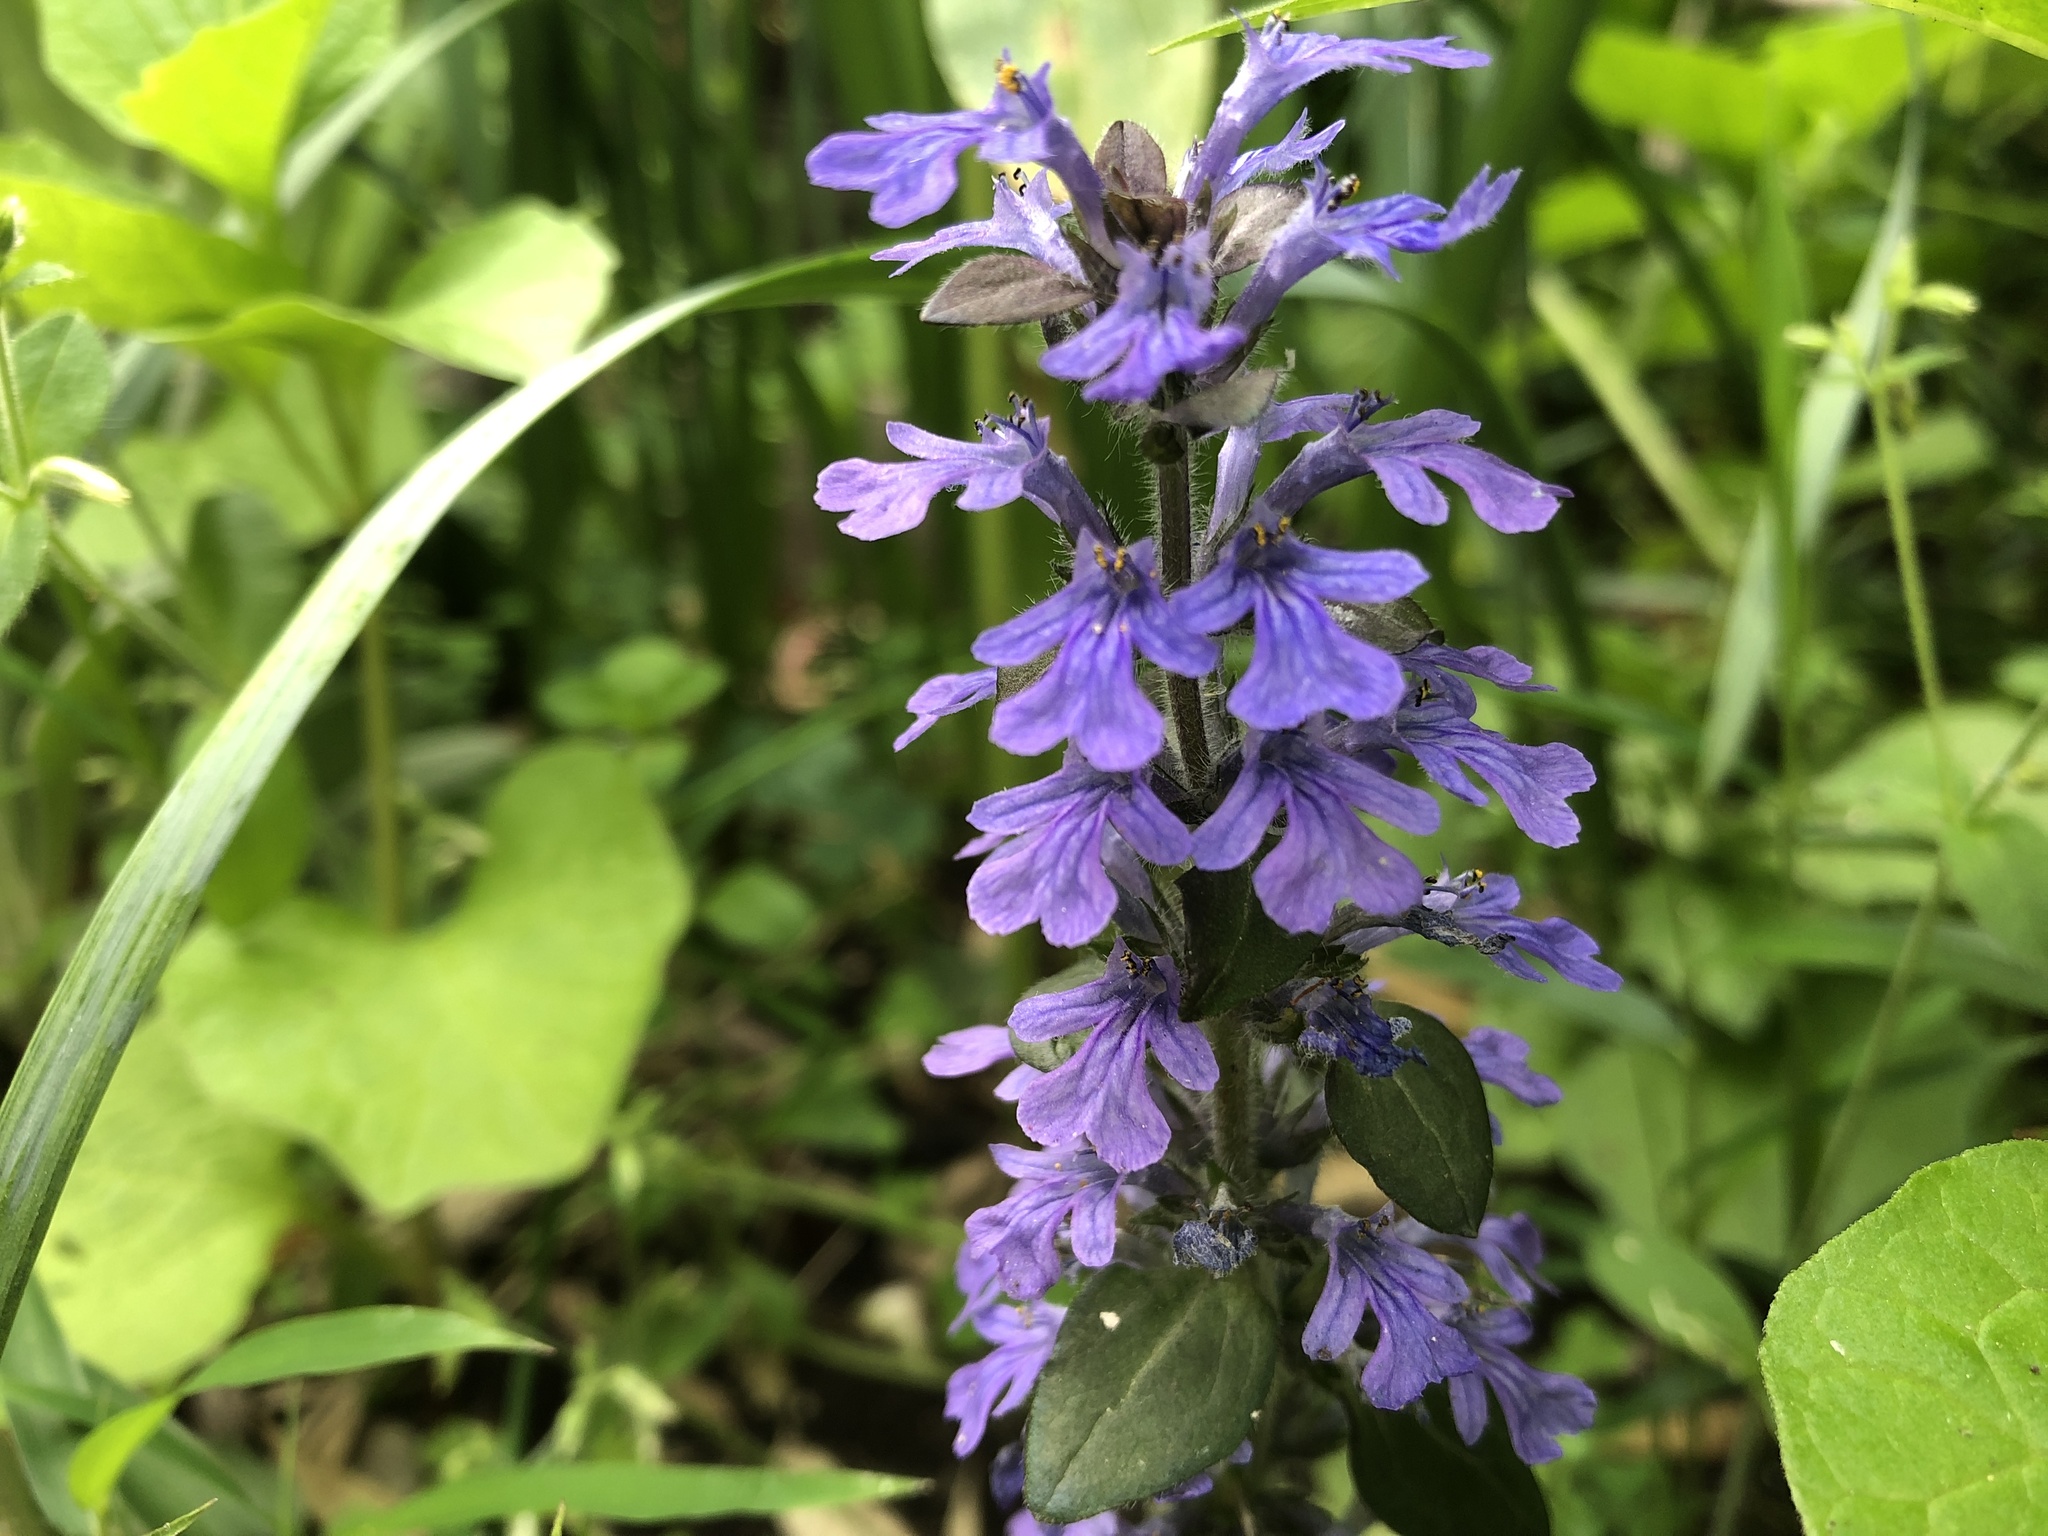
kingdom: Plantae
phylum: Tracheophyta
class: Magnoliopsida
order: Lamiales
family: Lamiaceae
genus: Ajuga
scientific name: Ajuga reptans
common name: Bugle
